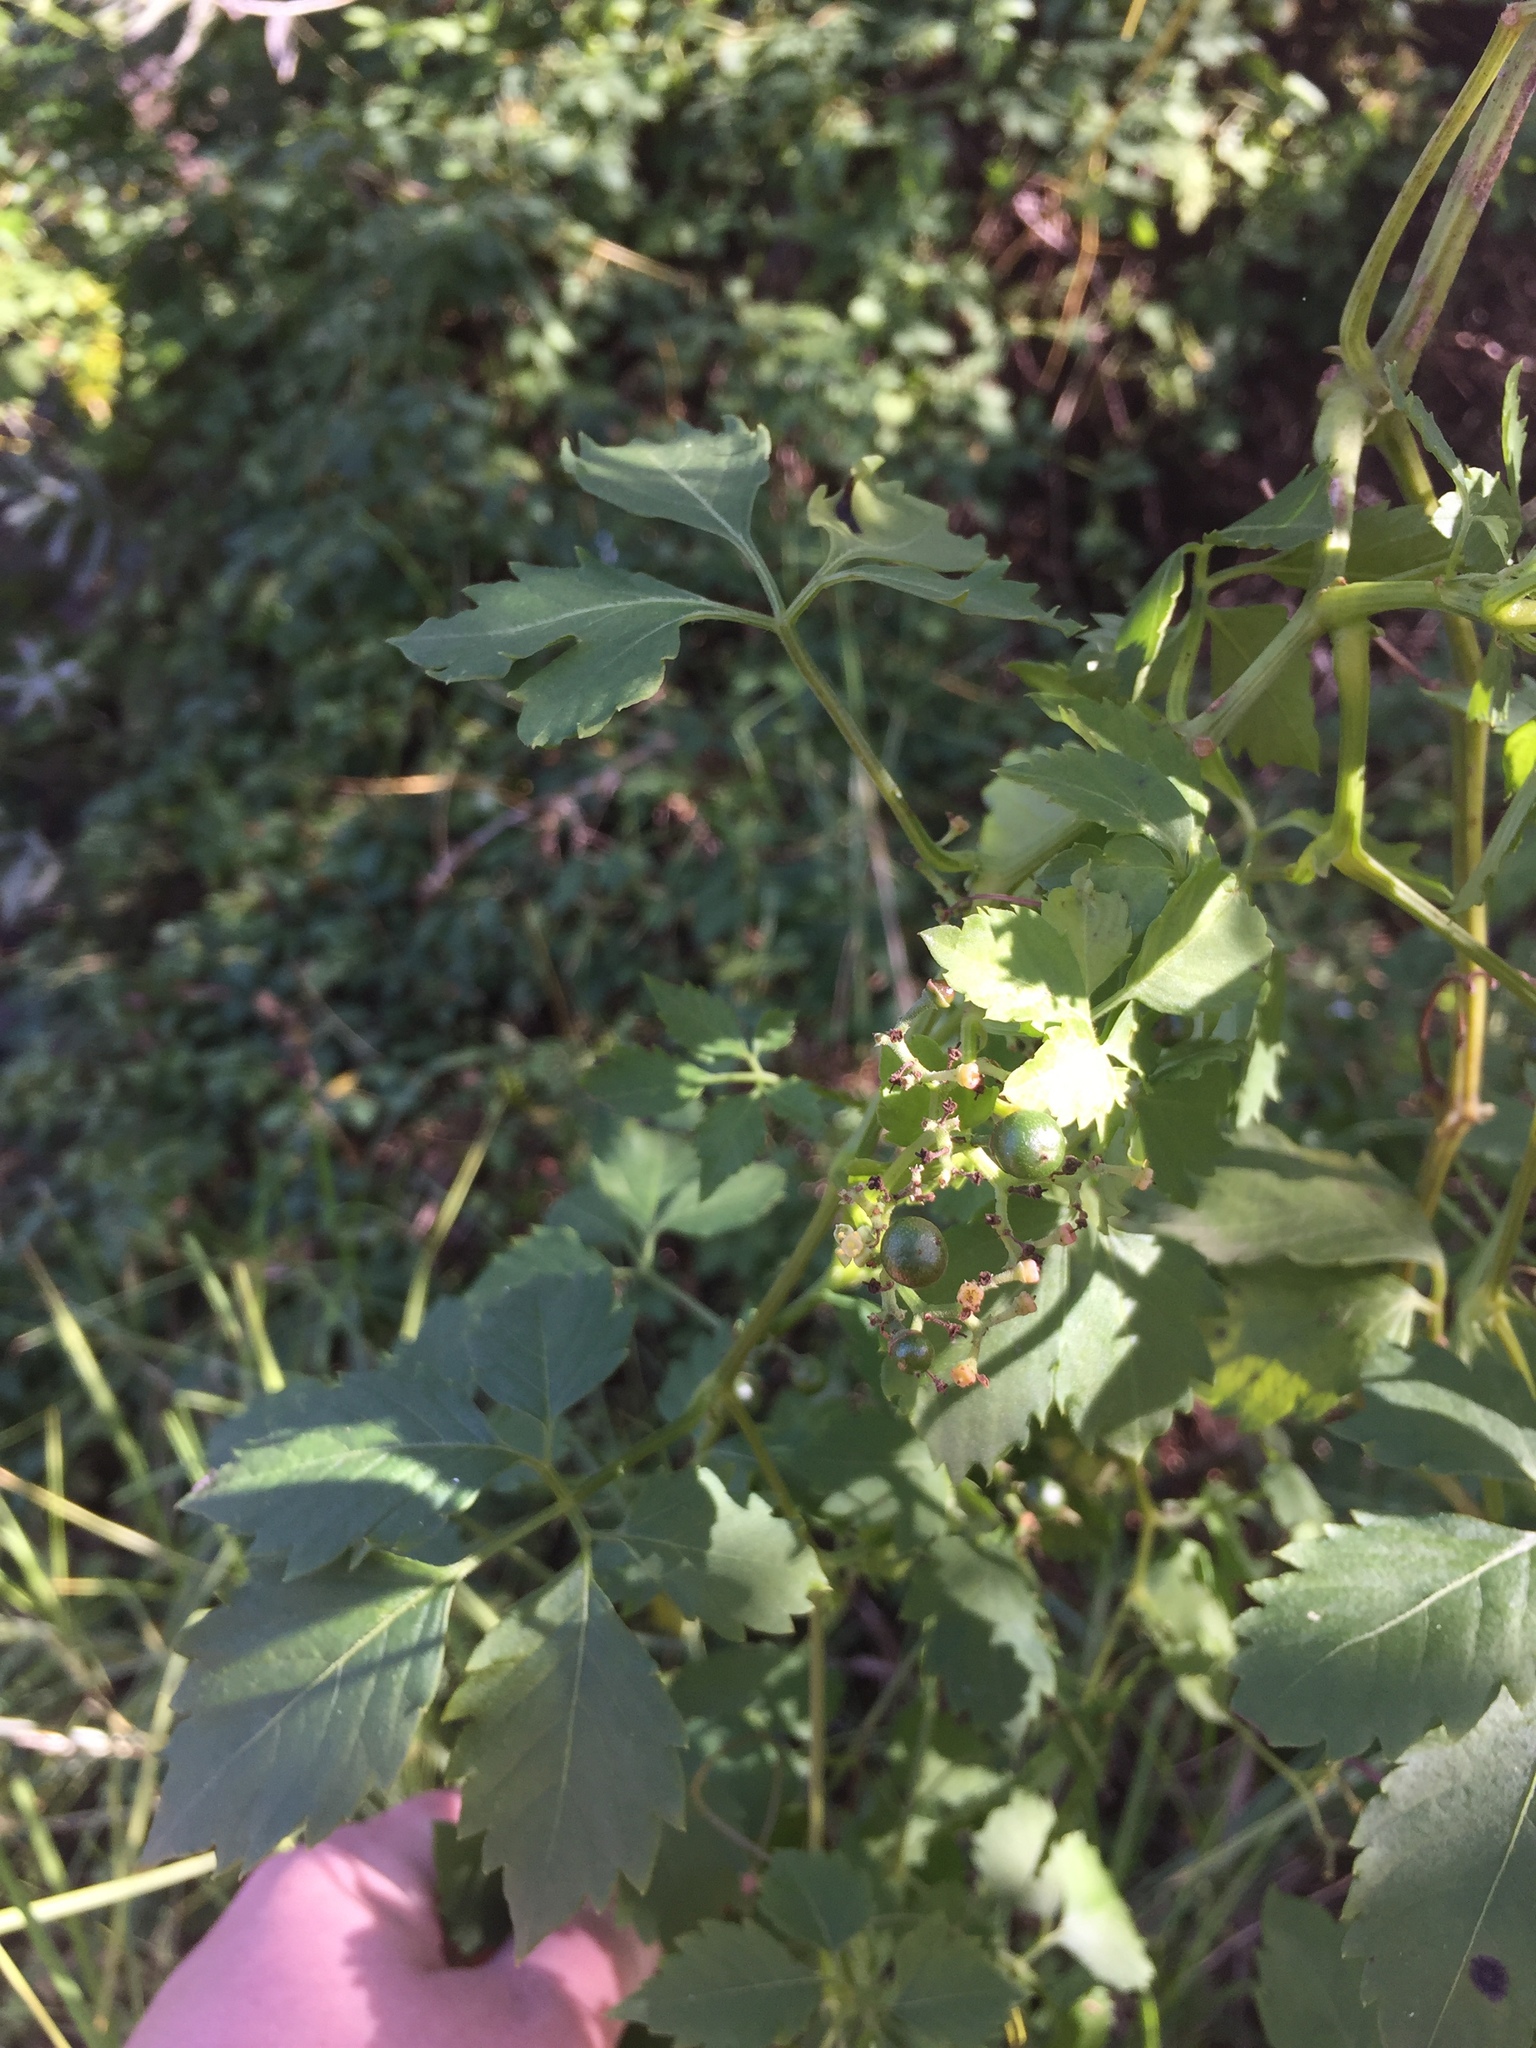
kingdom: Plantae
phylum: Tracheophyta
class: Magnoliopsida
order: Vitales
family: Vitaceae
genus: Causonis
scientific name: Causonis clematidea
